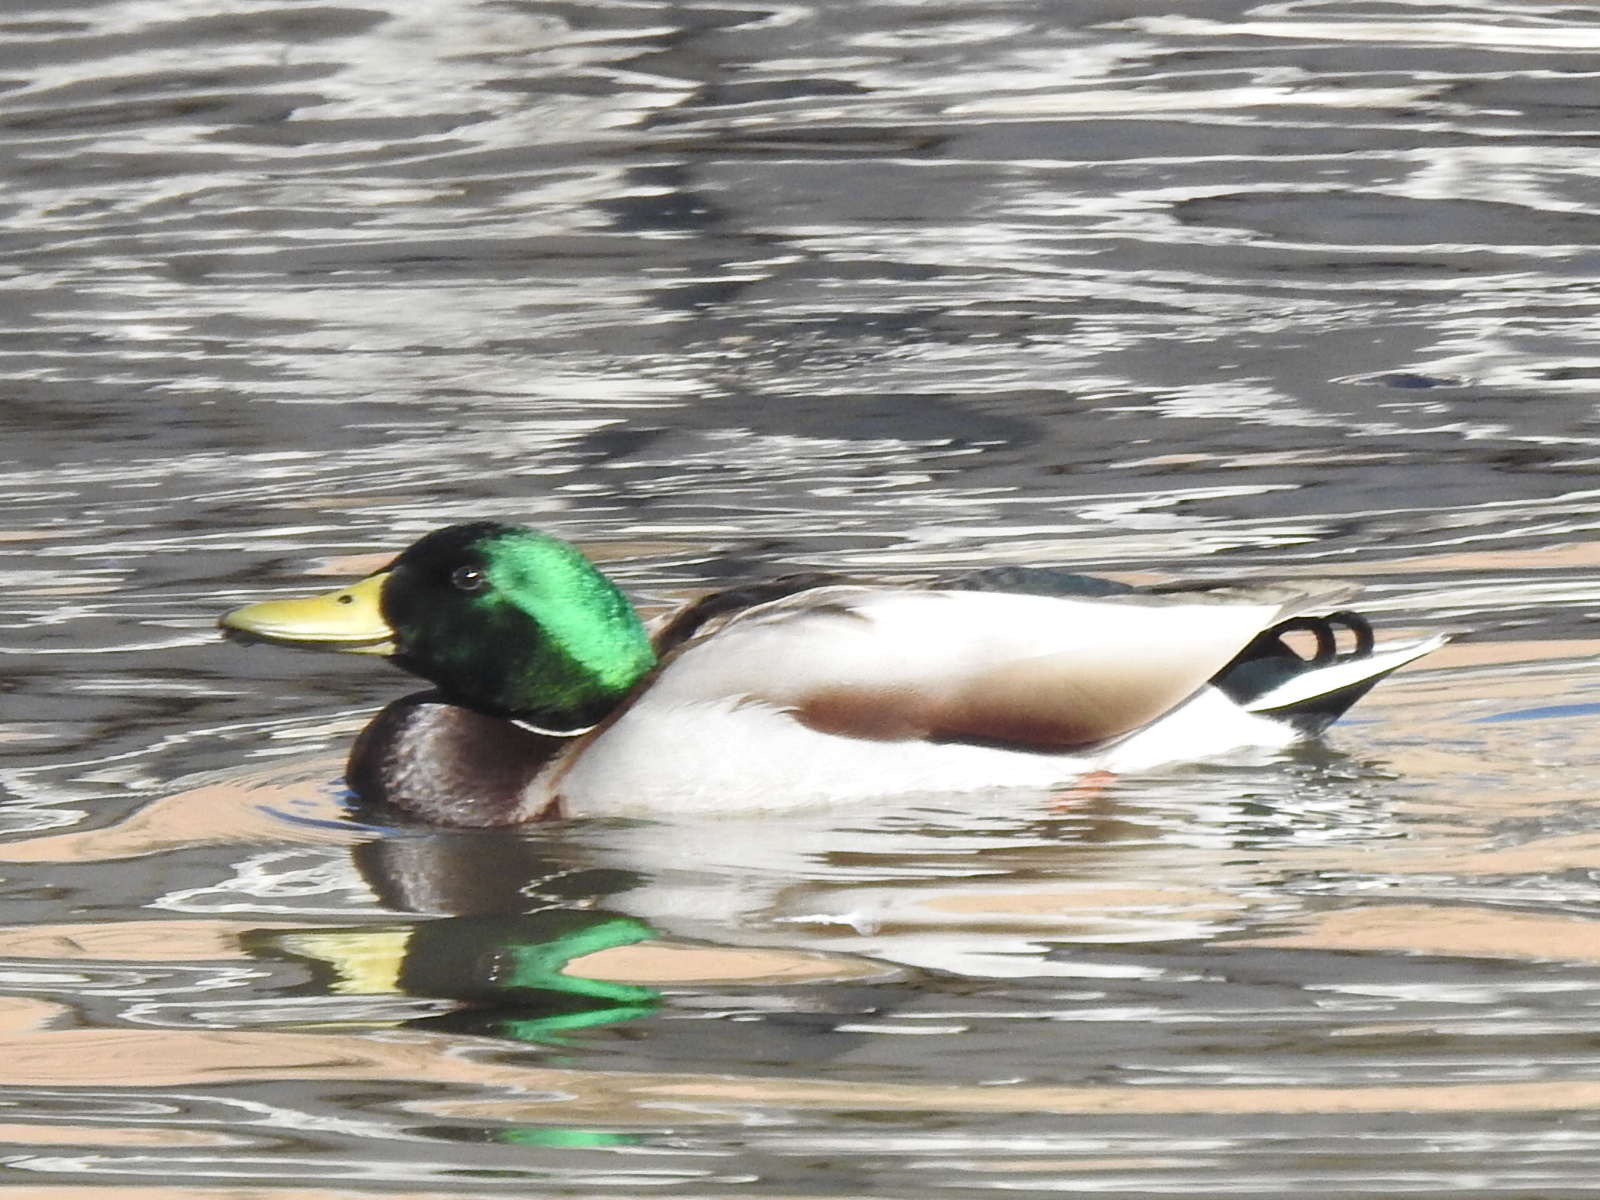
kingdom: Animalia
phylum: Chordata
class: Aves
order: Anseriformes
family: Anatidae
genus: Anas
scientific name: Anas platyrhynchos
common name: Mallard
